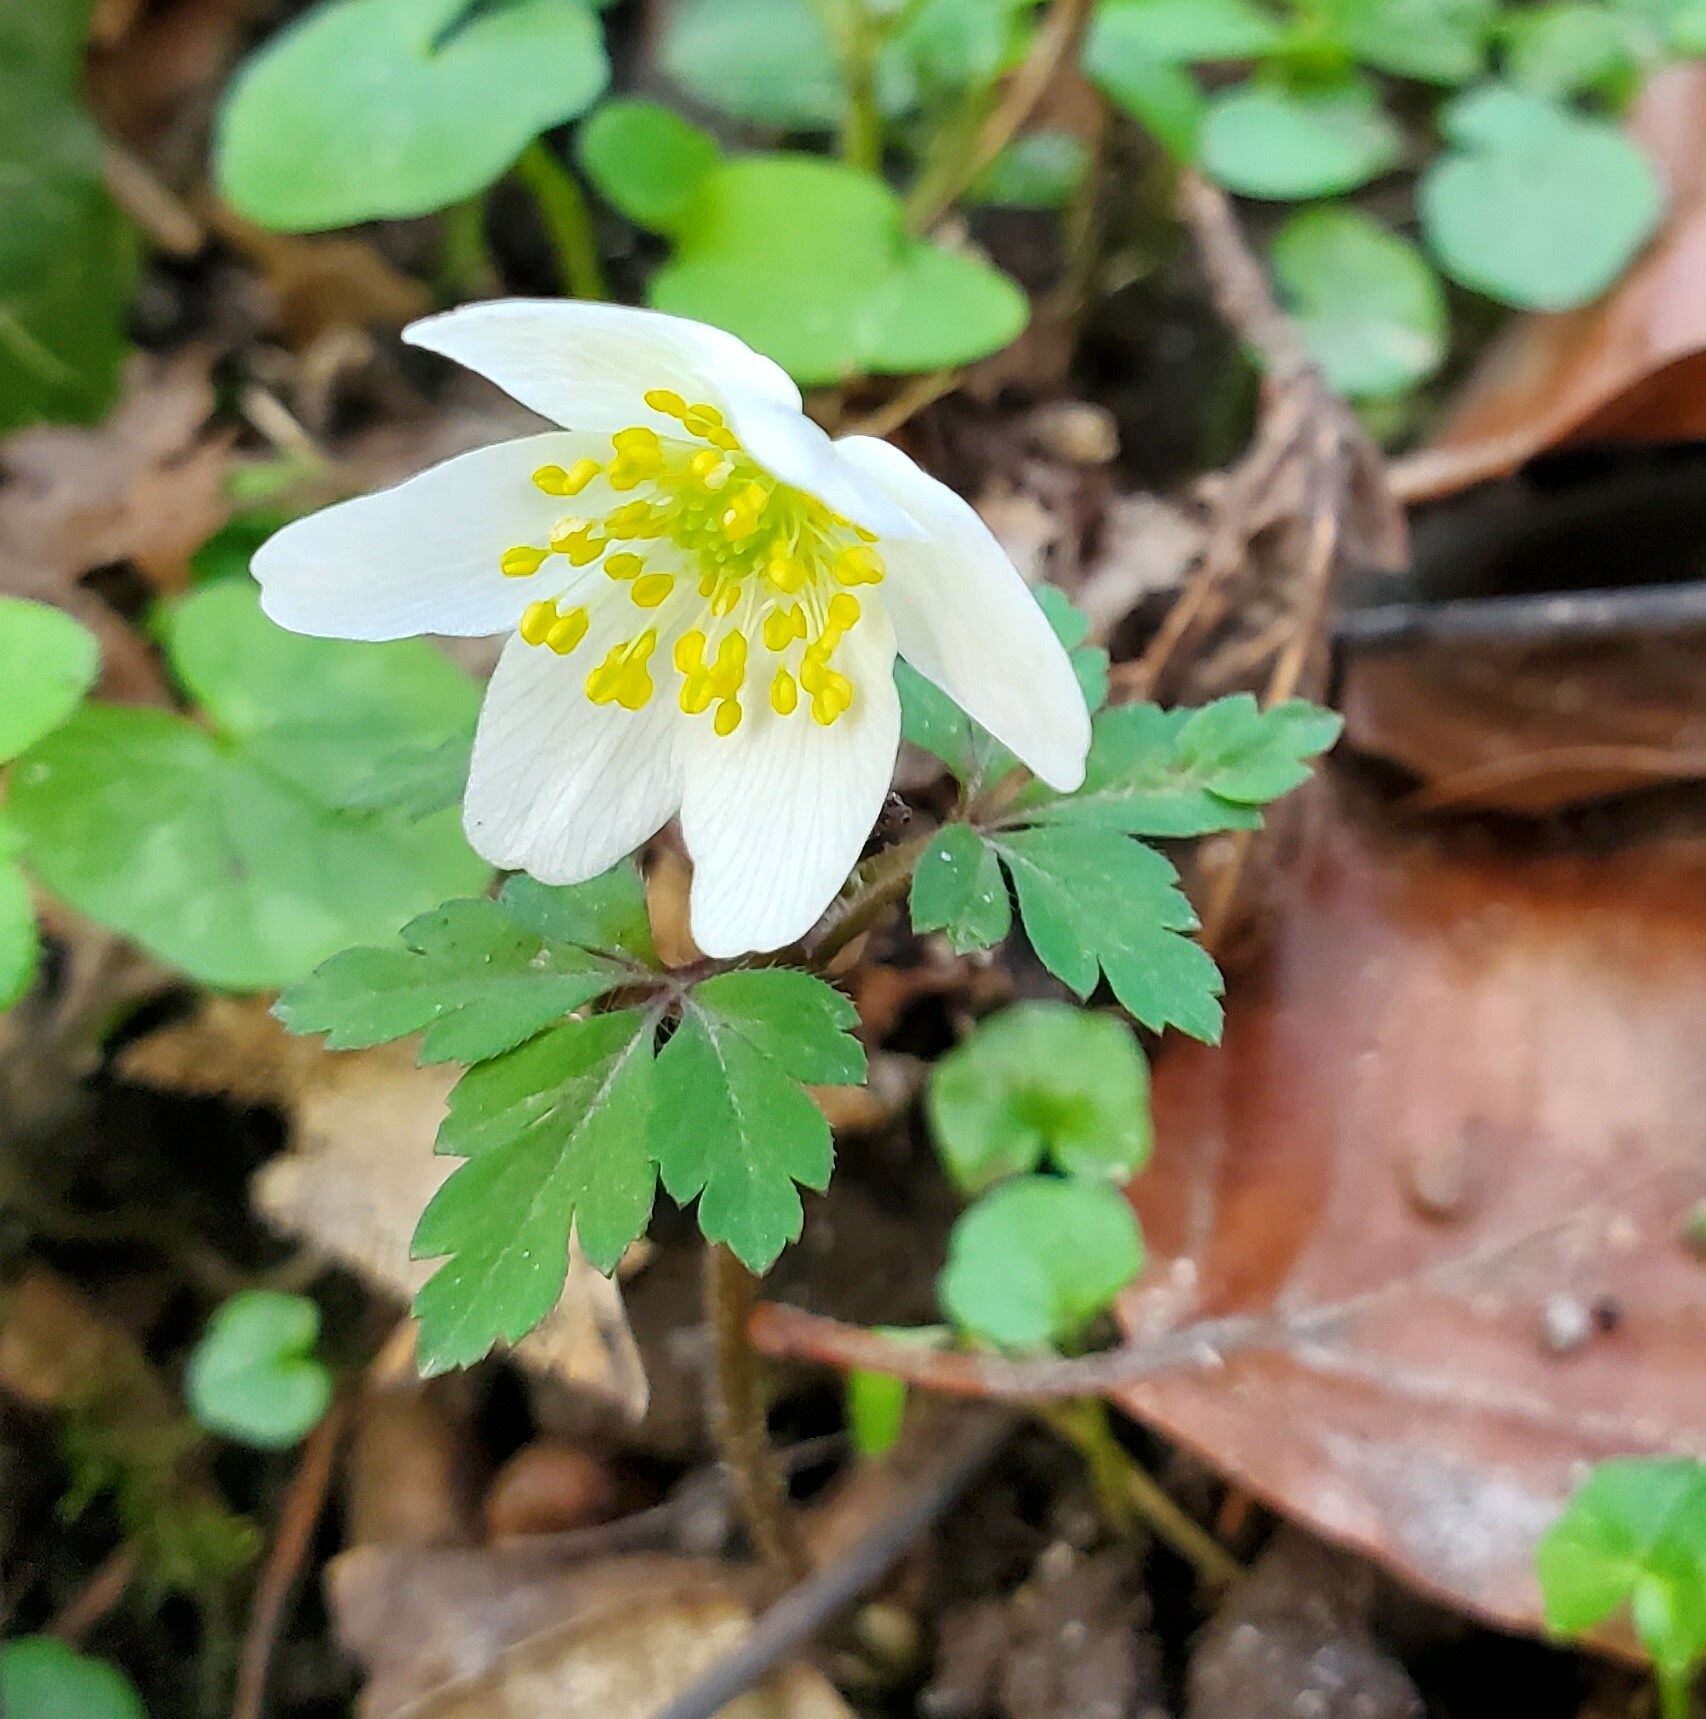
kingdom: Plantae
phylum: Tracheophyta
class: Magnoliopsida
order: Ranunculales
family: Ranunculaceae
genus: Anemone
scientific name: Anemone nemorosa
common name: Wood anemone
